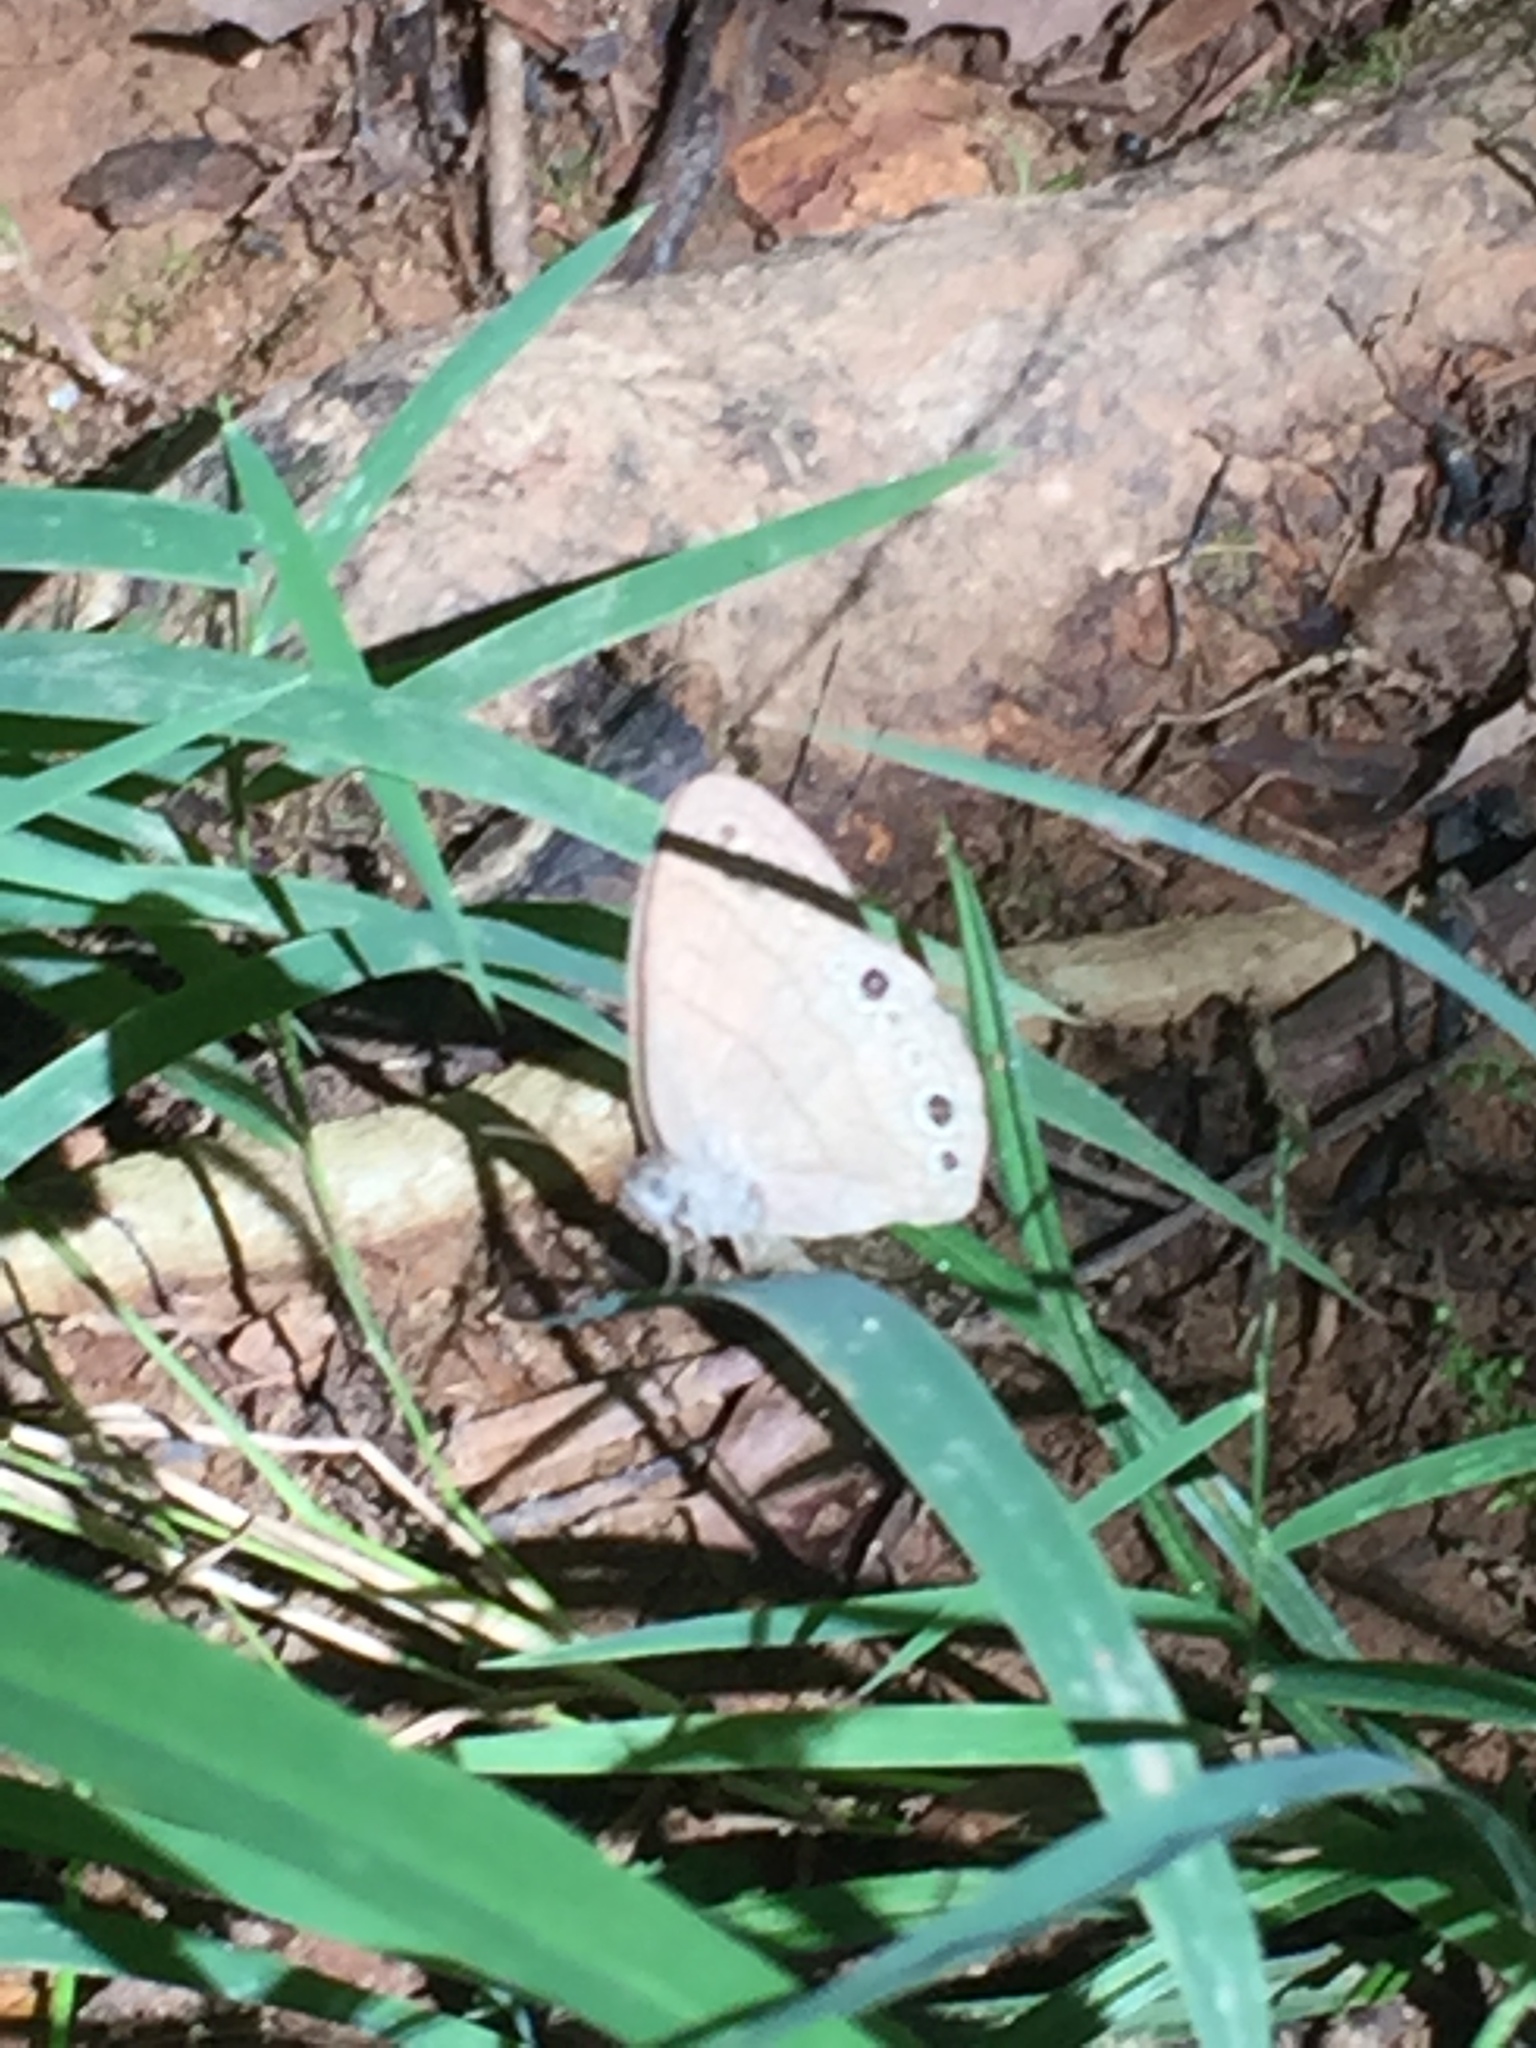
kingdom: Animalia
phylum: Arthropoda
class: Insecta
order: Lepidoptera
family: Nymphalidae
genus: Hermeuptychia
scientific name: Hermeuptychia hermes
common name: Hermes satyr
